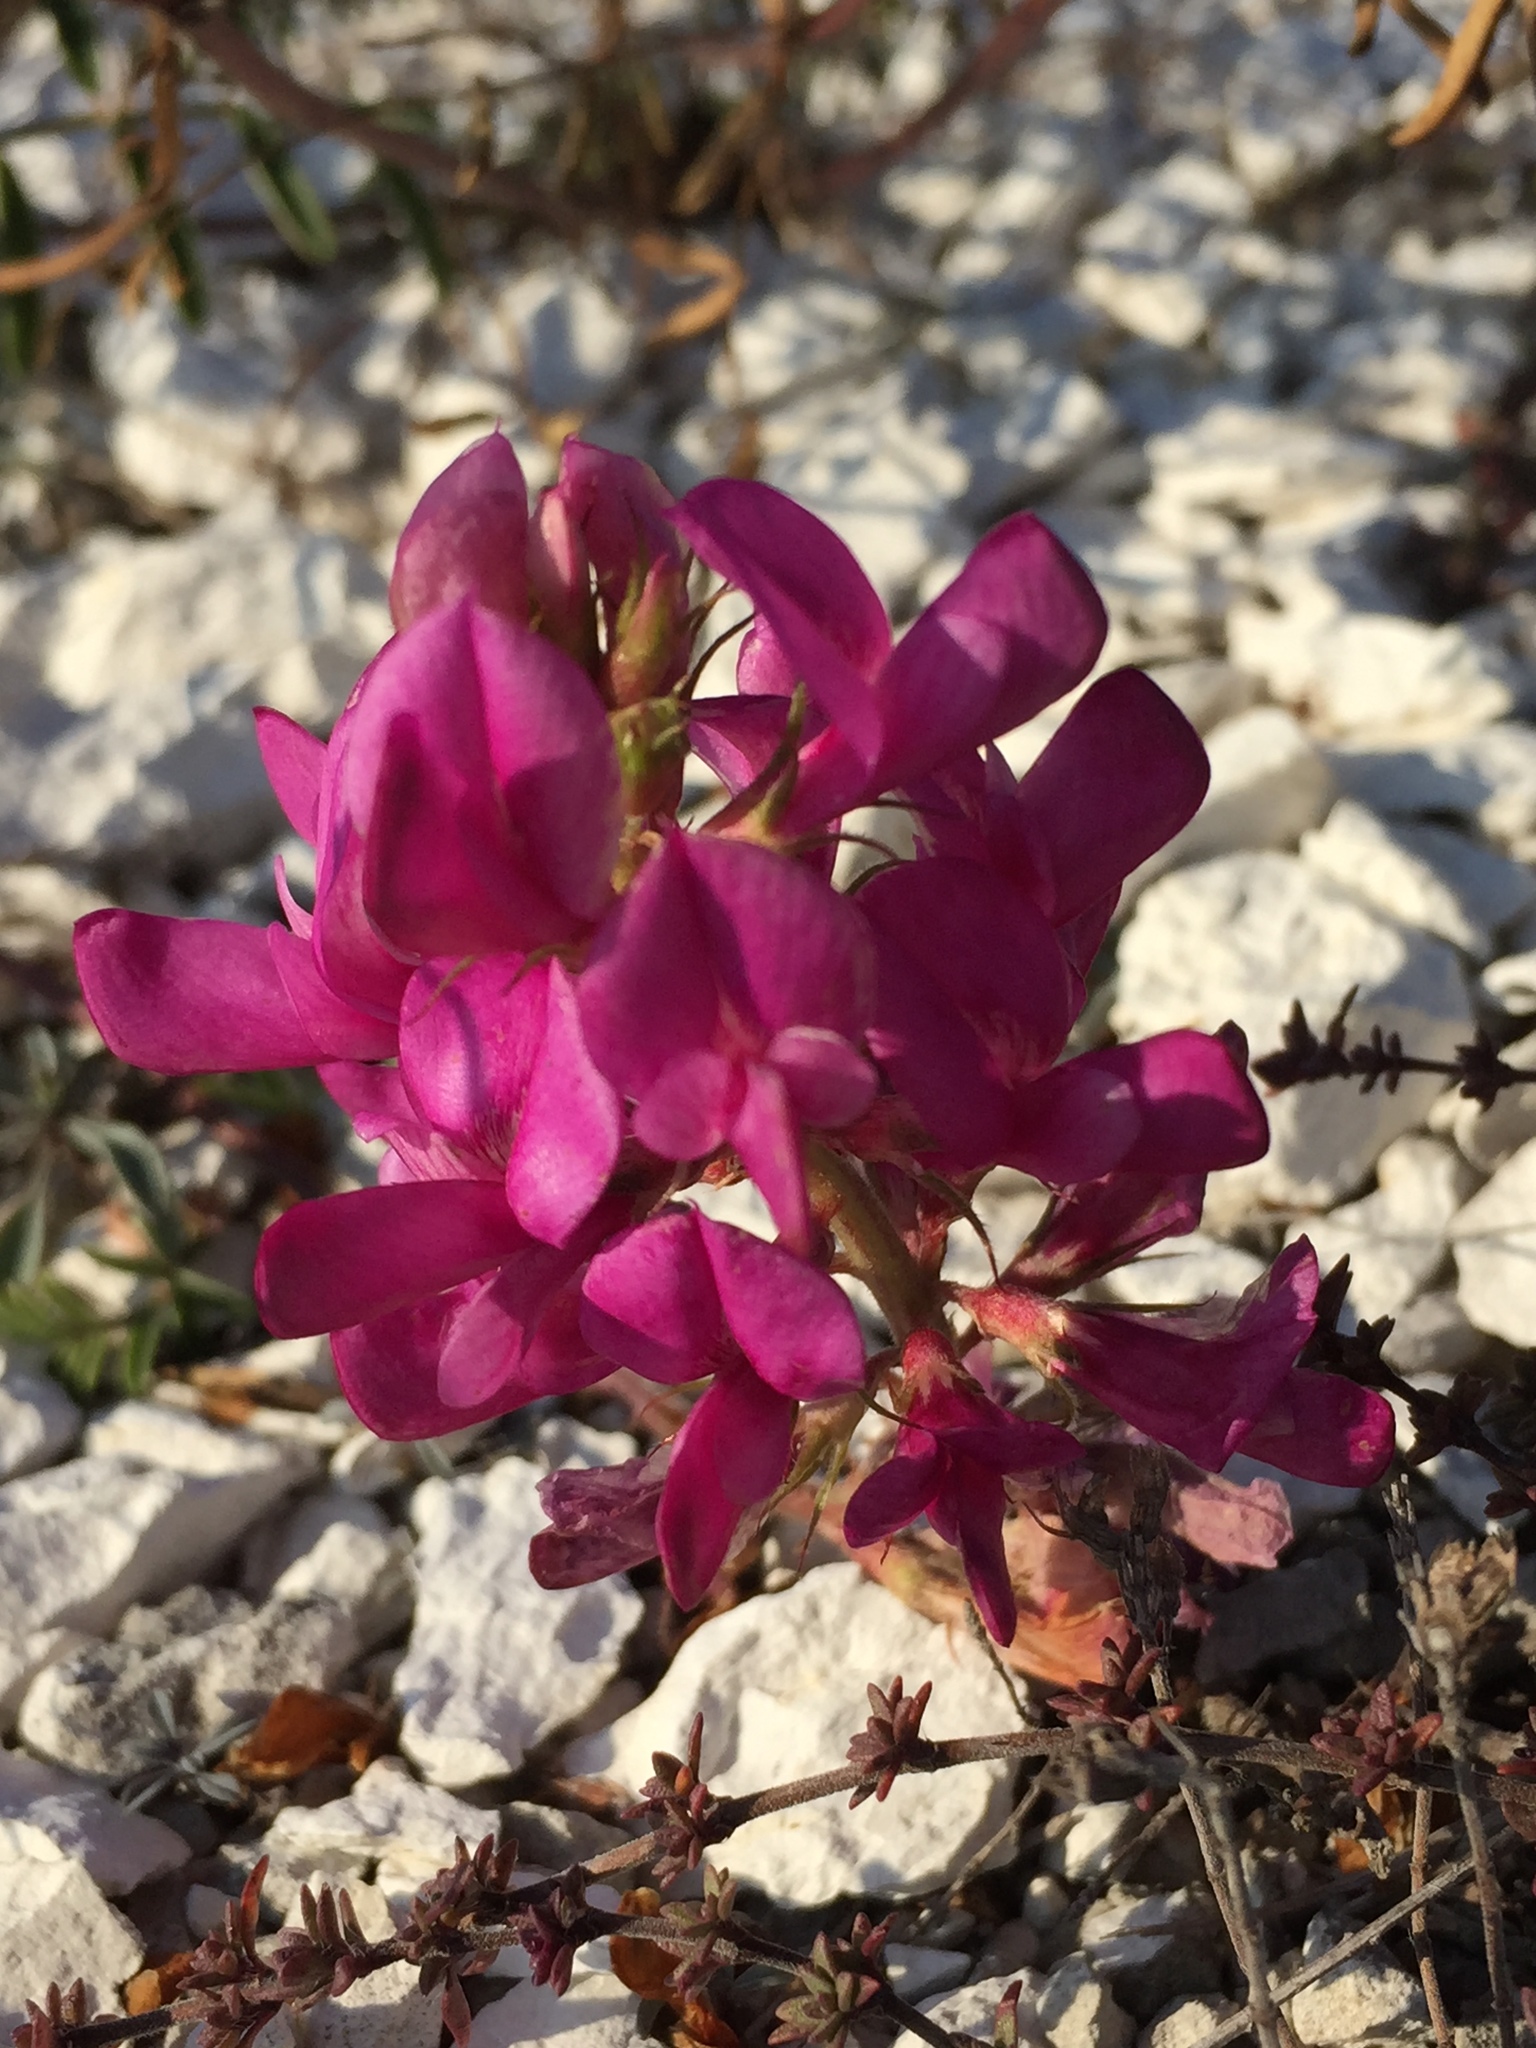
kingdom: Plantae
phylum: Tracheophyta
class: Magnoliopsida
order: Fabales
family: Fabaceae
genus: Hedysarum
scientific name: Hedysarum ucrainicum
